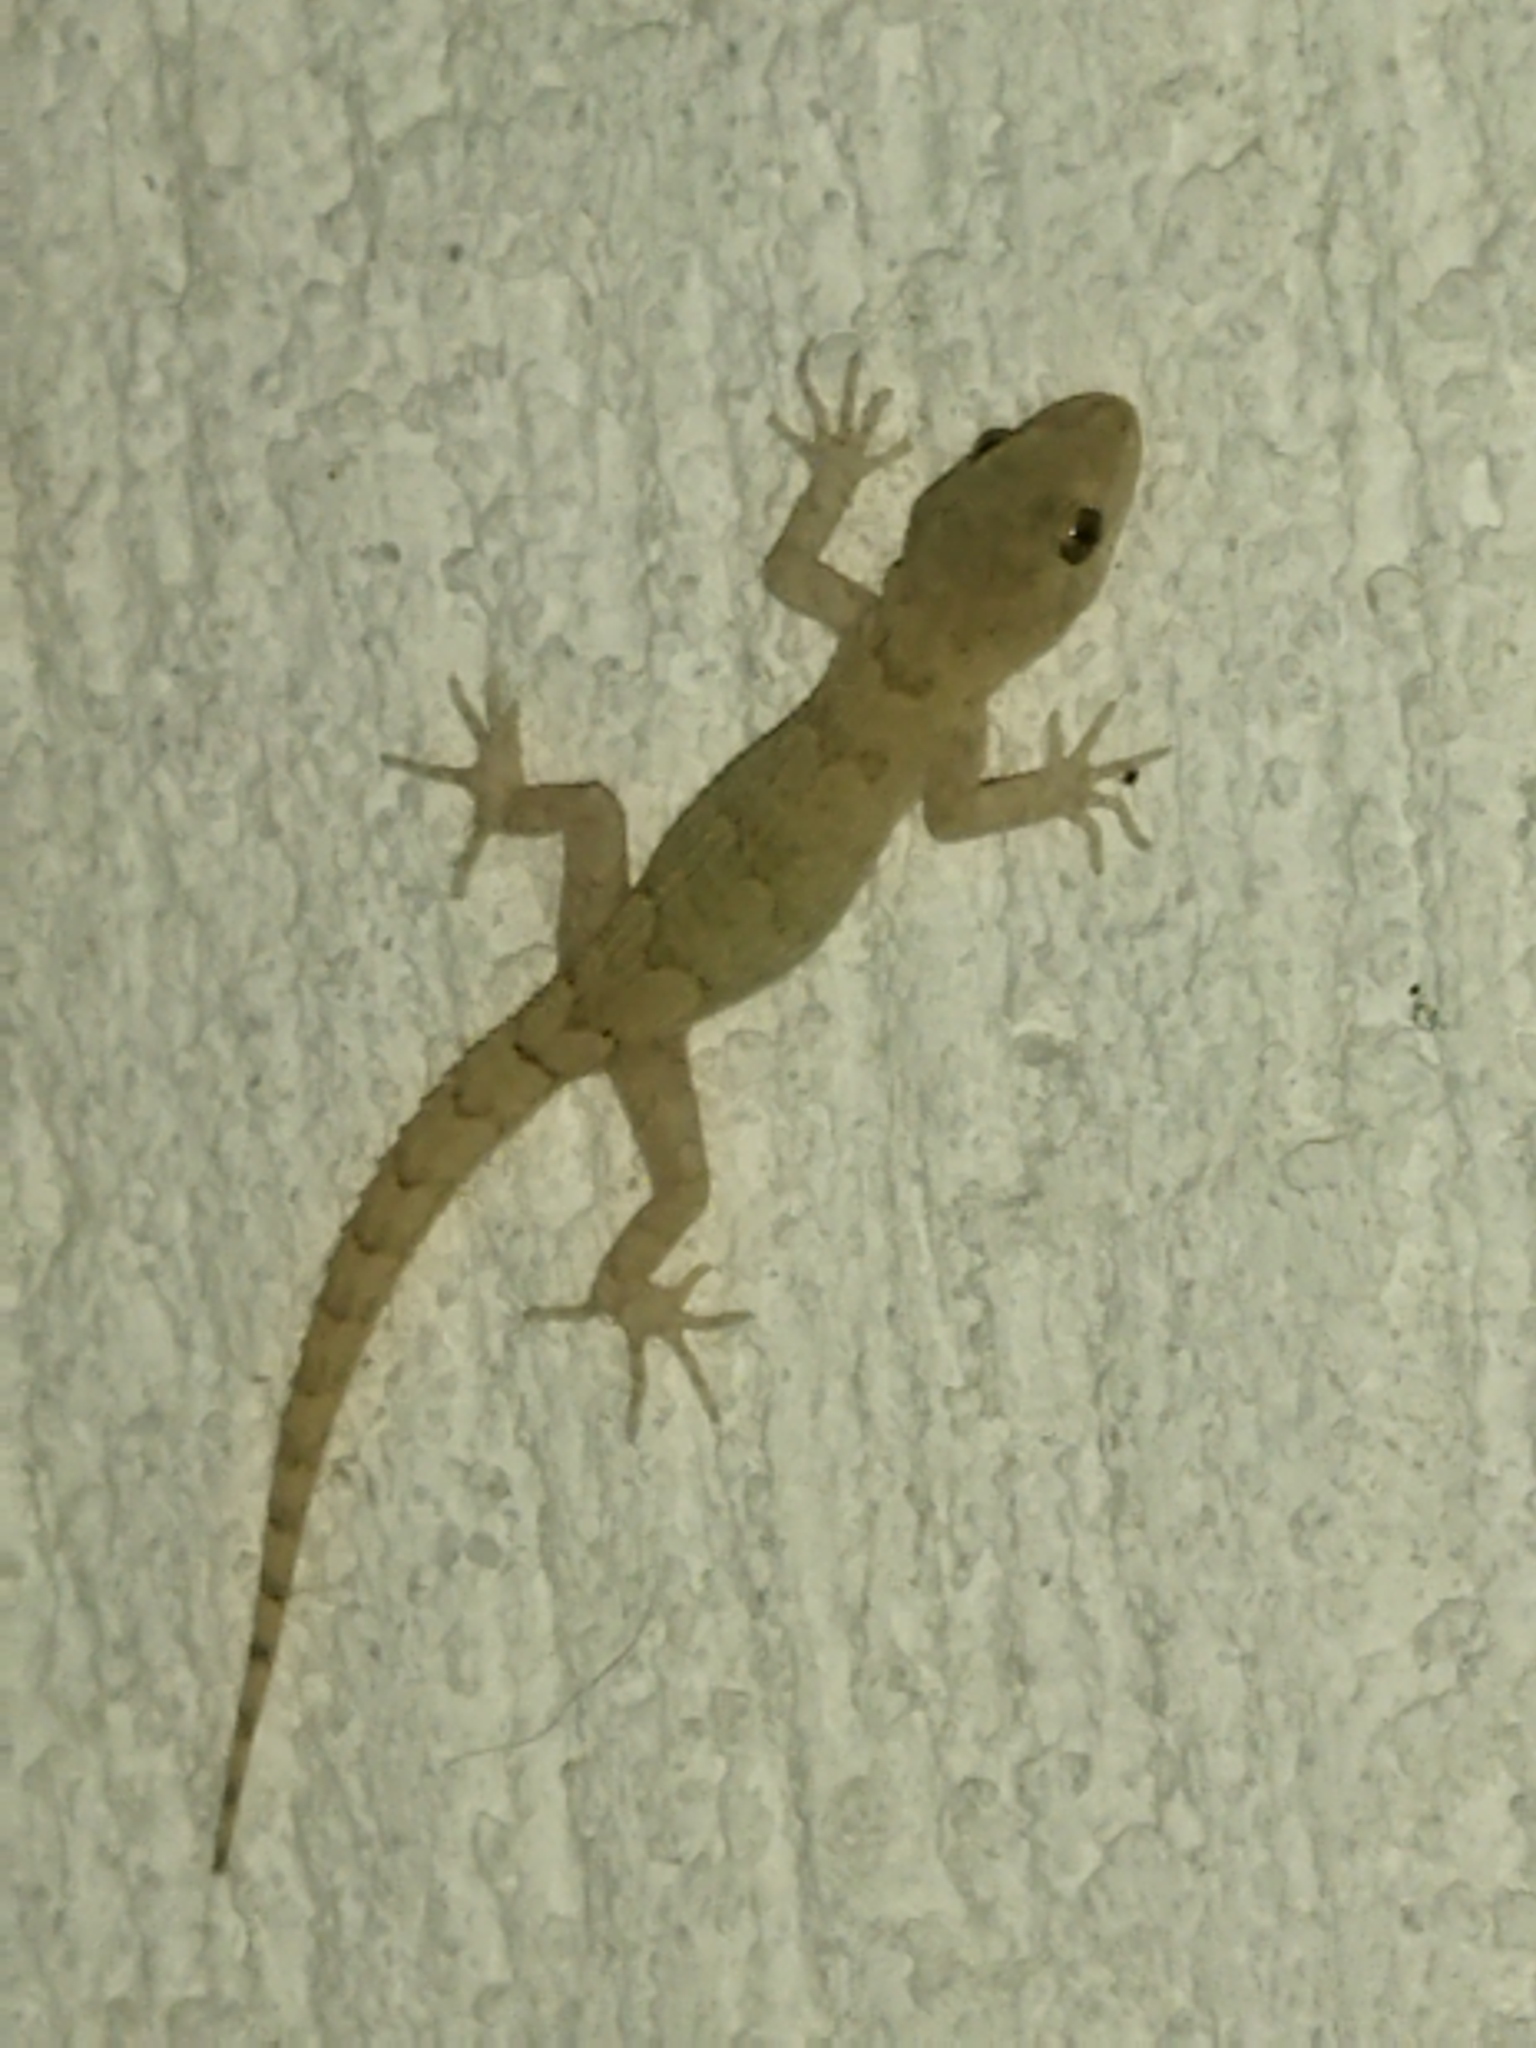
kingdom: Animalia
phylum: Chordata
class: Squamata
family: Gekkonidae
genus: Mediodactylus
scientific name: Mediodactylus kotschyi
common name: Kotschy's gecko
